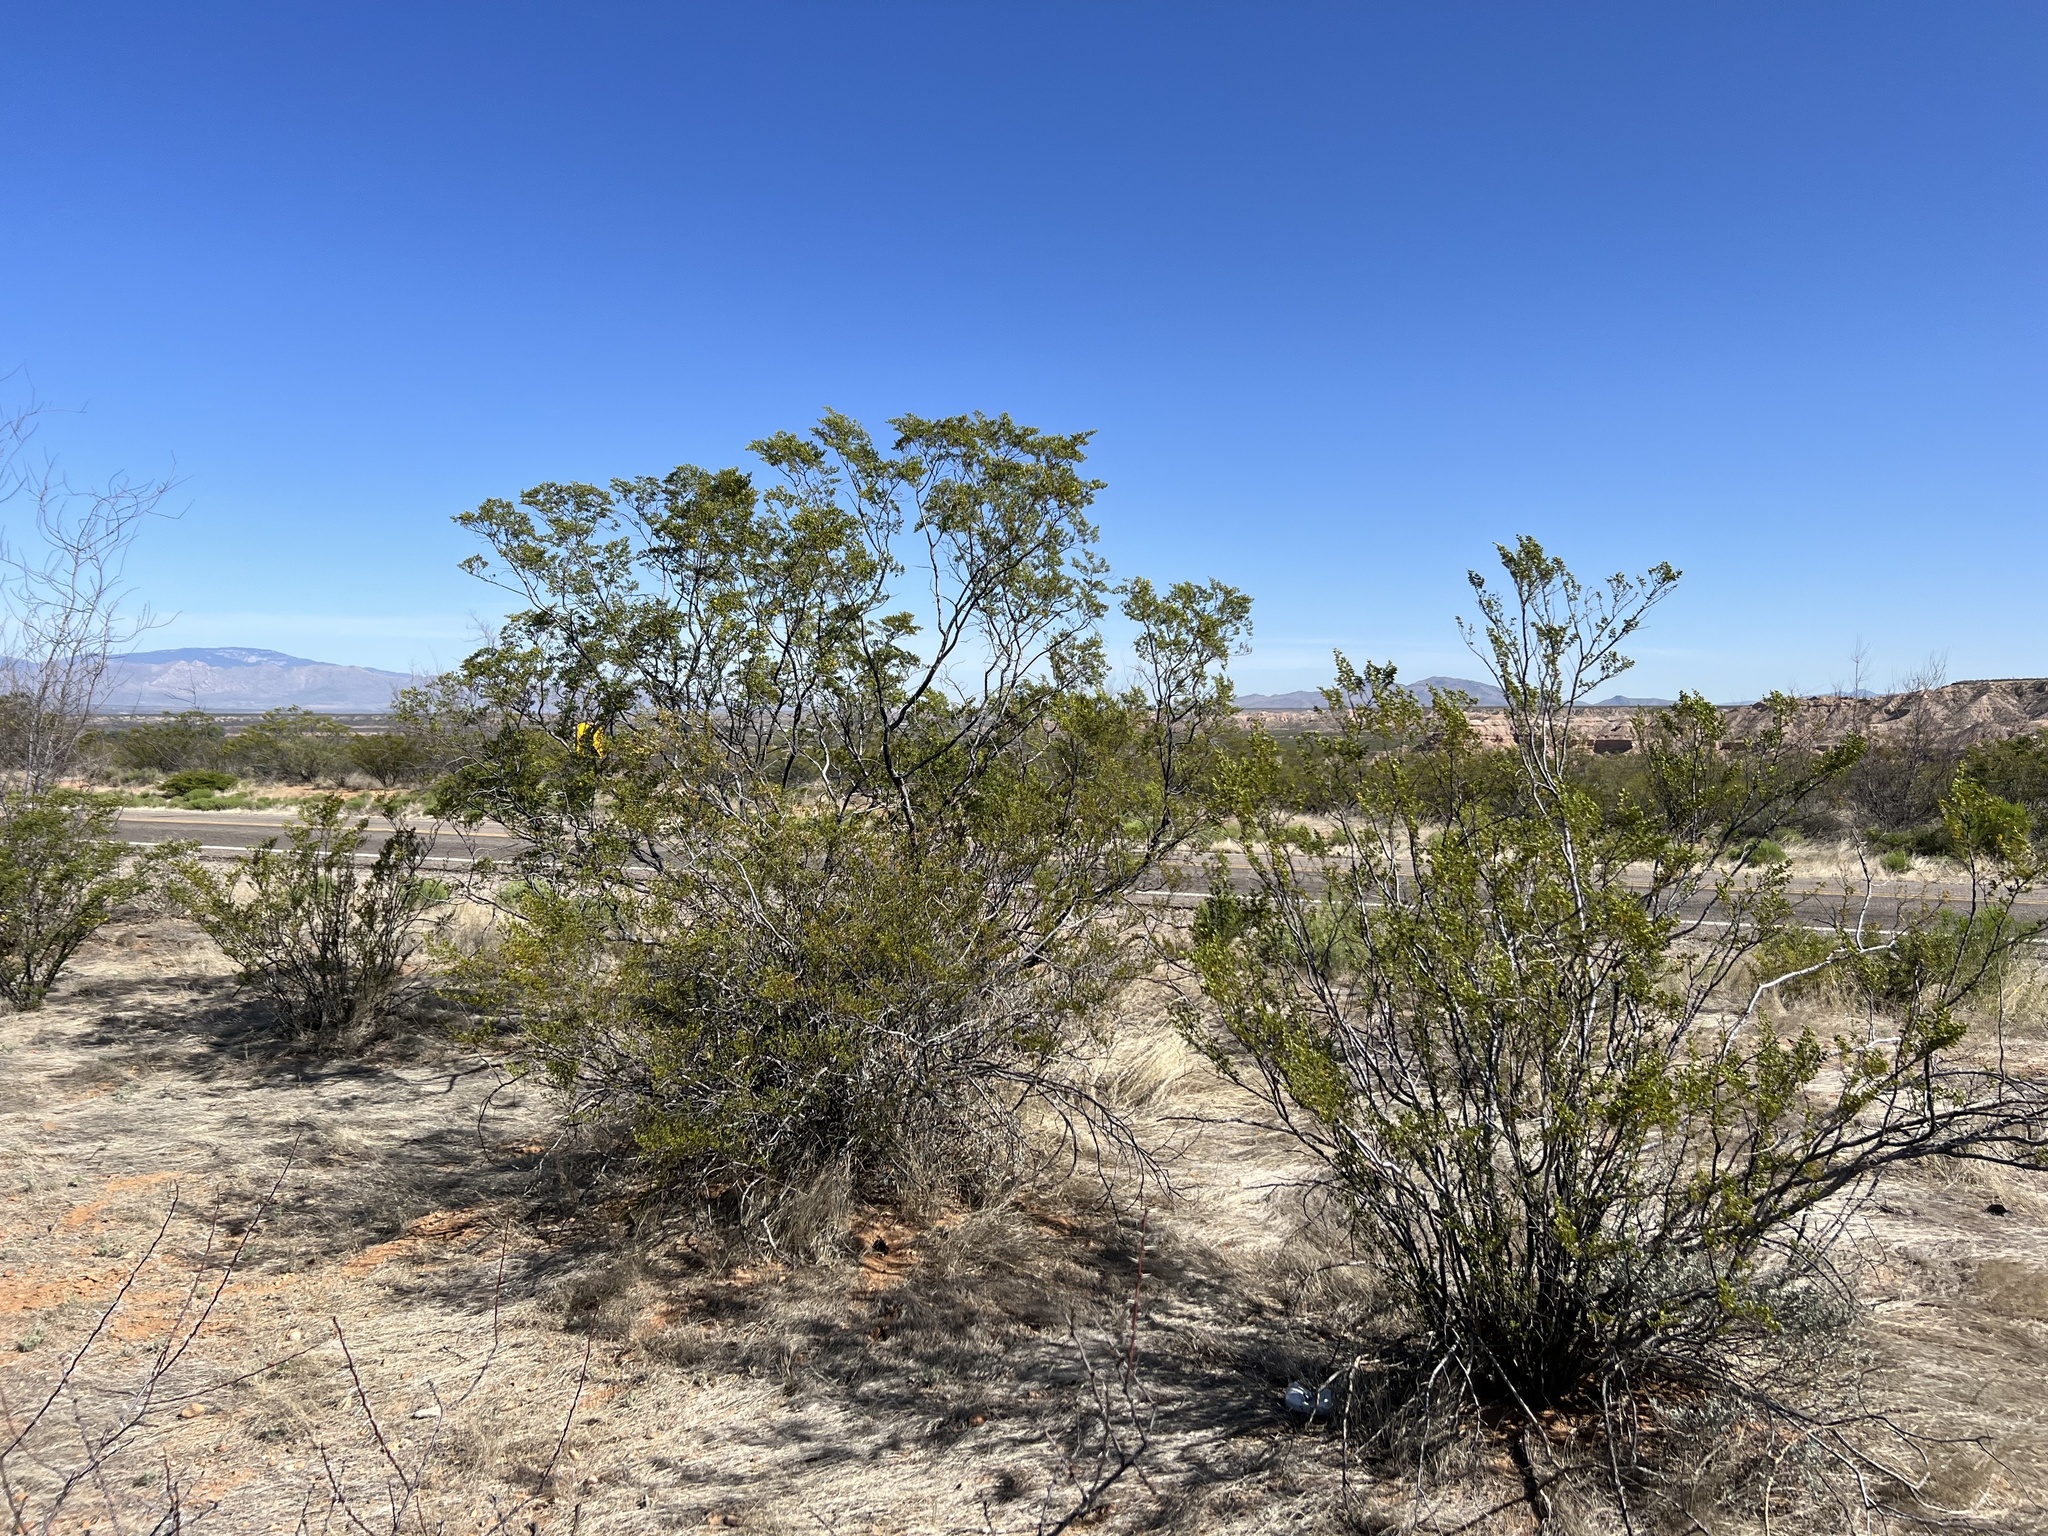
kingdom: Plantae
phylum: Tracheophyta
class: Magnoliopsida
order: Zygophyllales
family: Zygophyllaceae
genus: Larrea
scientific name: Larrea tridentata
